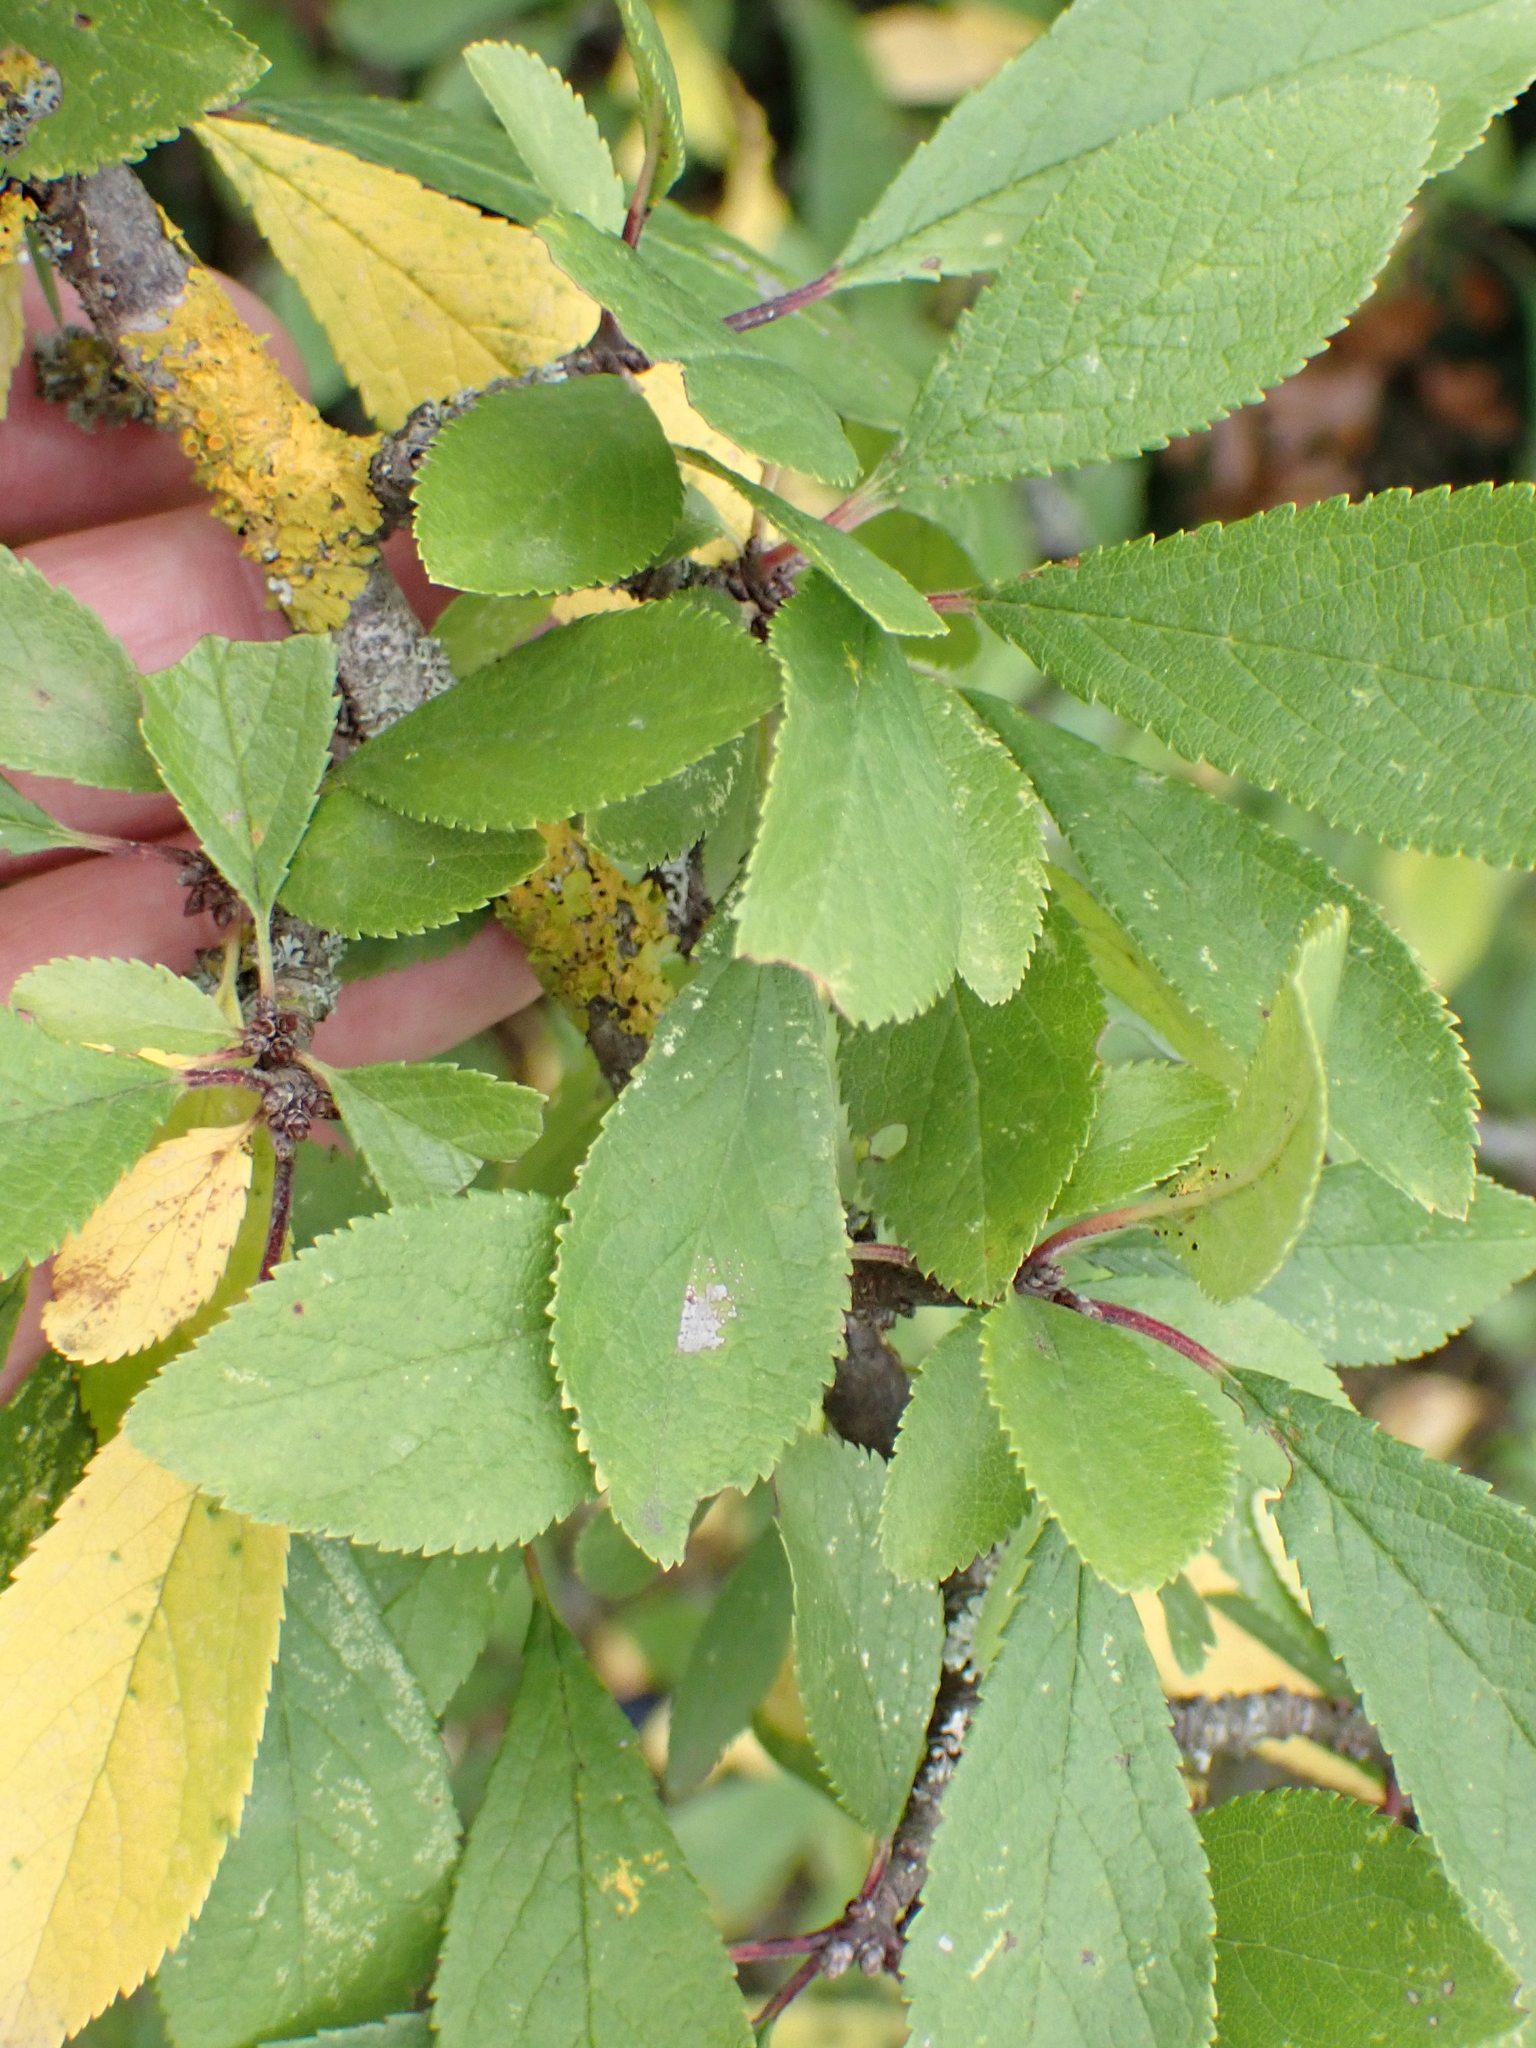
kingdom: Plantae
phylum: Tracheophyta
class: Magnoliopsida
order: Rosales
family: Rosaceae
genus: Prunus
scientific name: Prunus spinosa
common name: Blackthorn
